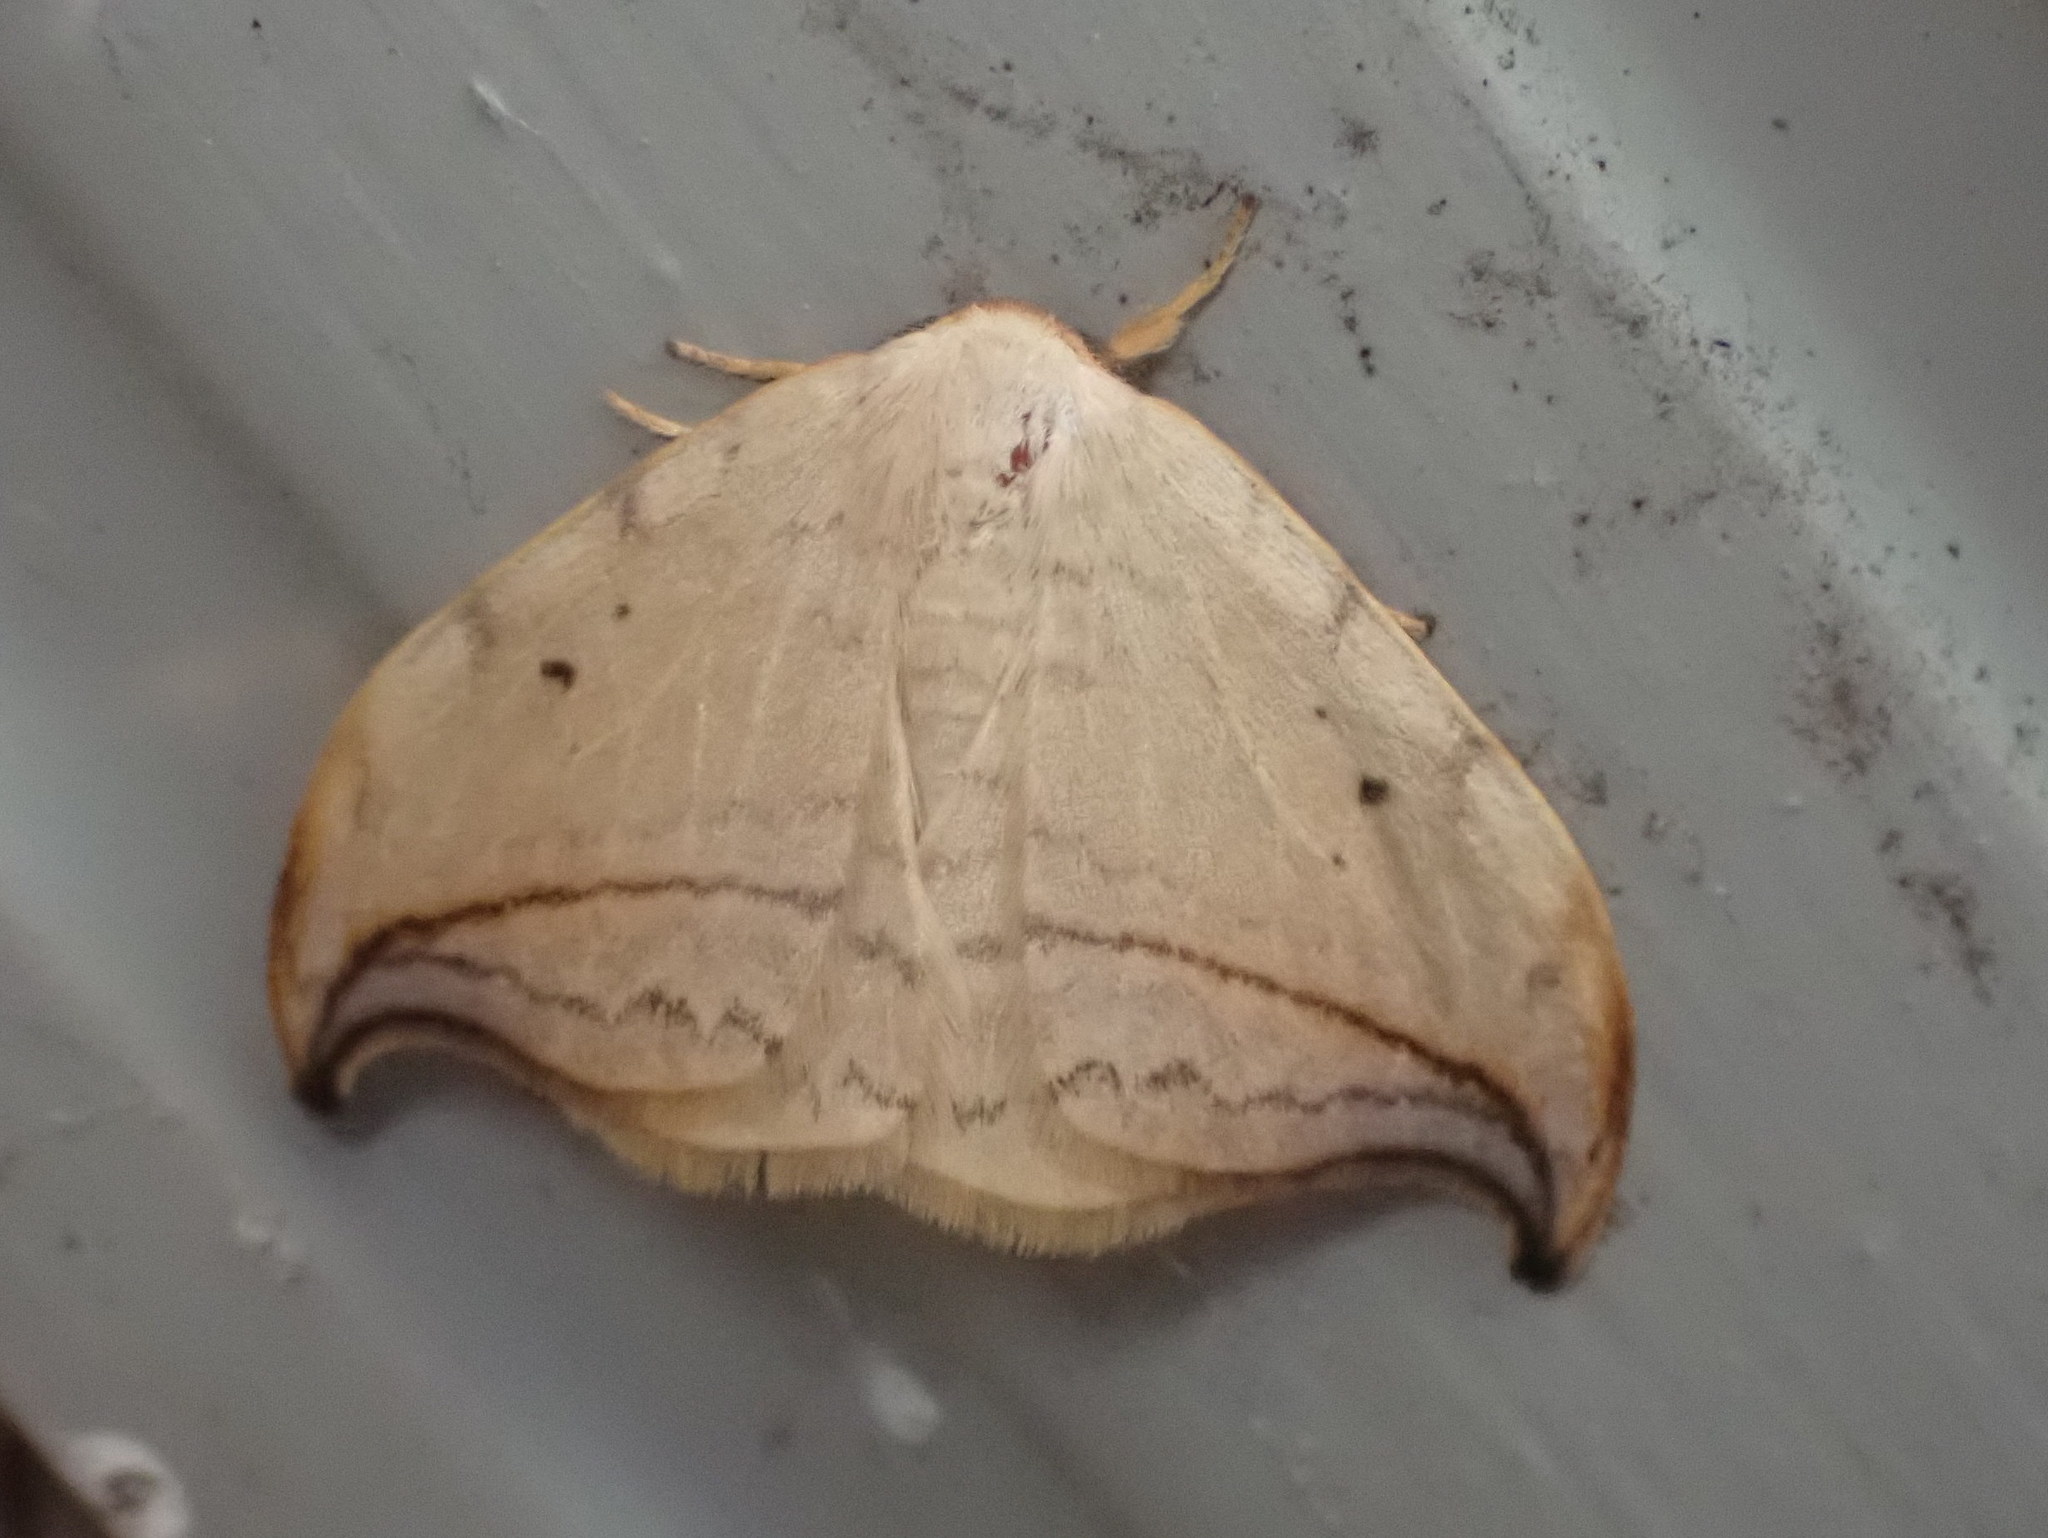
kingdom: Animalia
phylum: Arthropoda
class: Insecta
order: Lepidoptera
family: Drepanidae
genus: Drepana
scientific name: Drepana arcuata
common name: Arched hooktip moth
